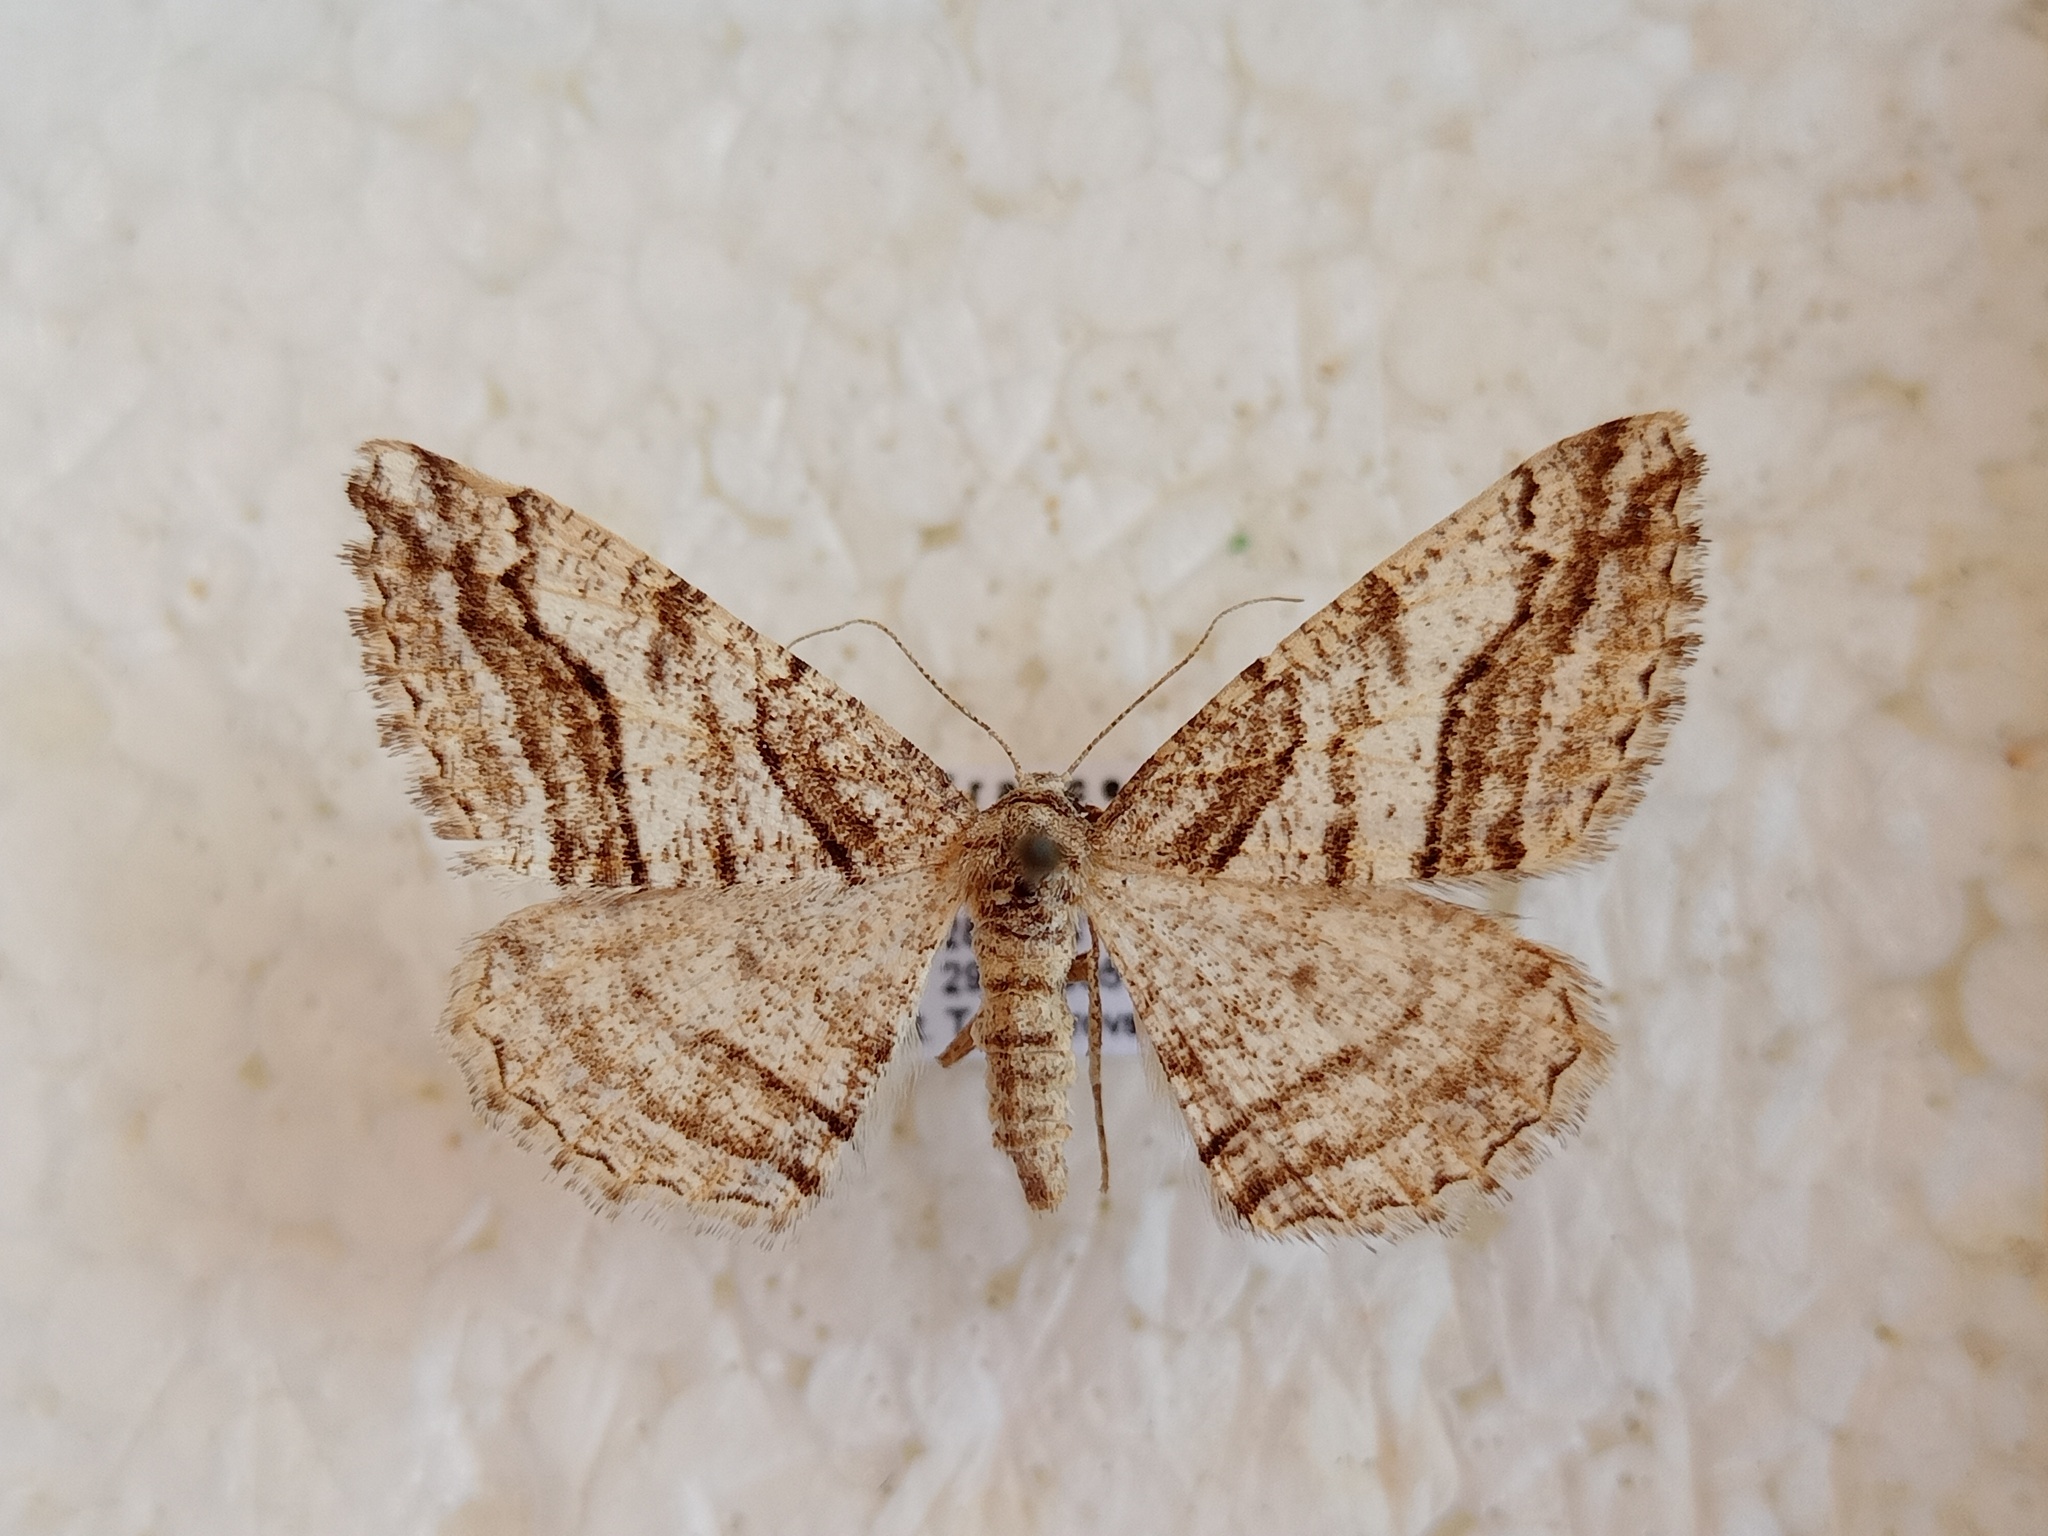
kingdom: Animalia
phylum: Arthropoda
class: Insecta
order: Lepidoptera
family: Geometridae
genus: Calamodes
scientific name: Calamodes occitanaria
